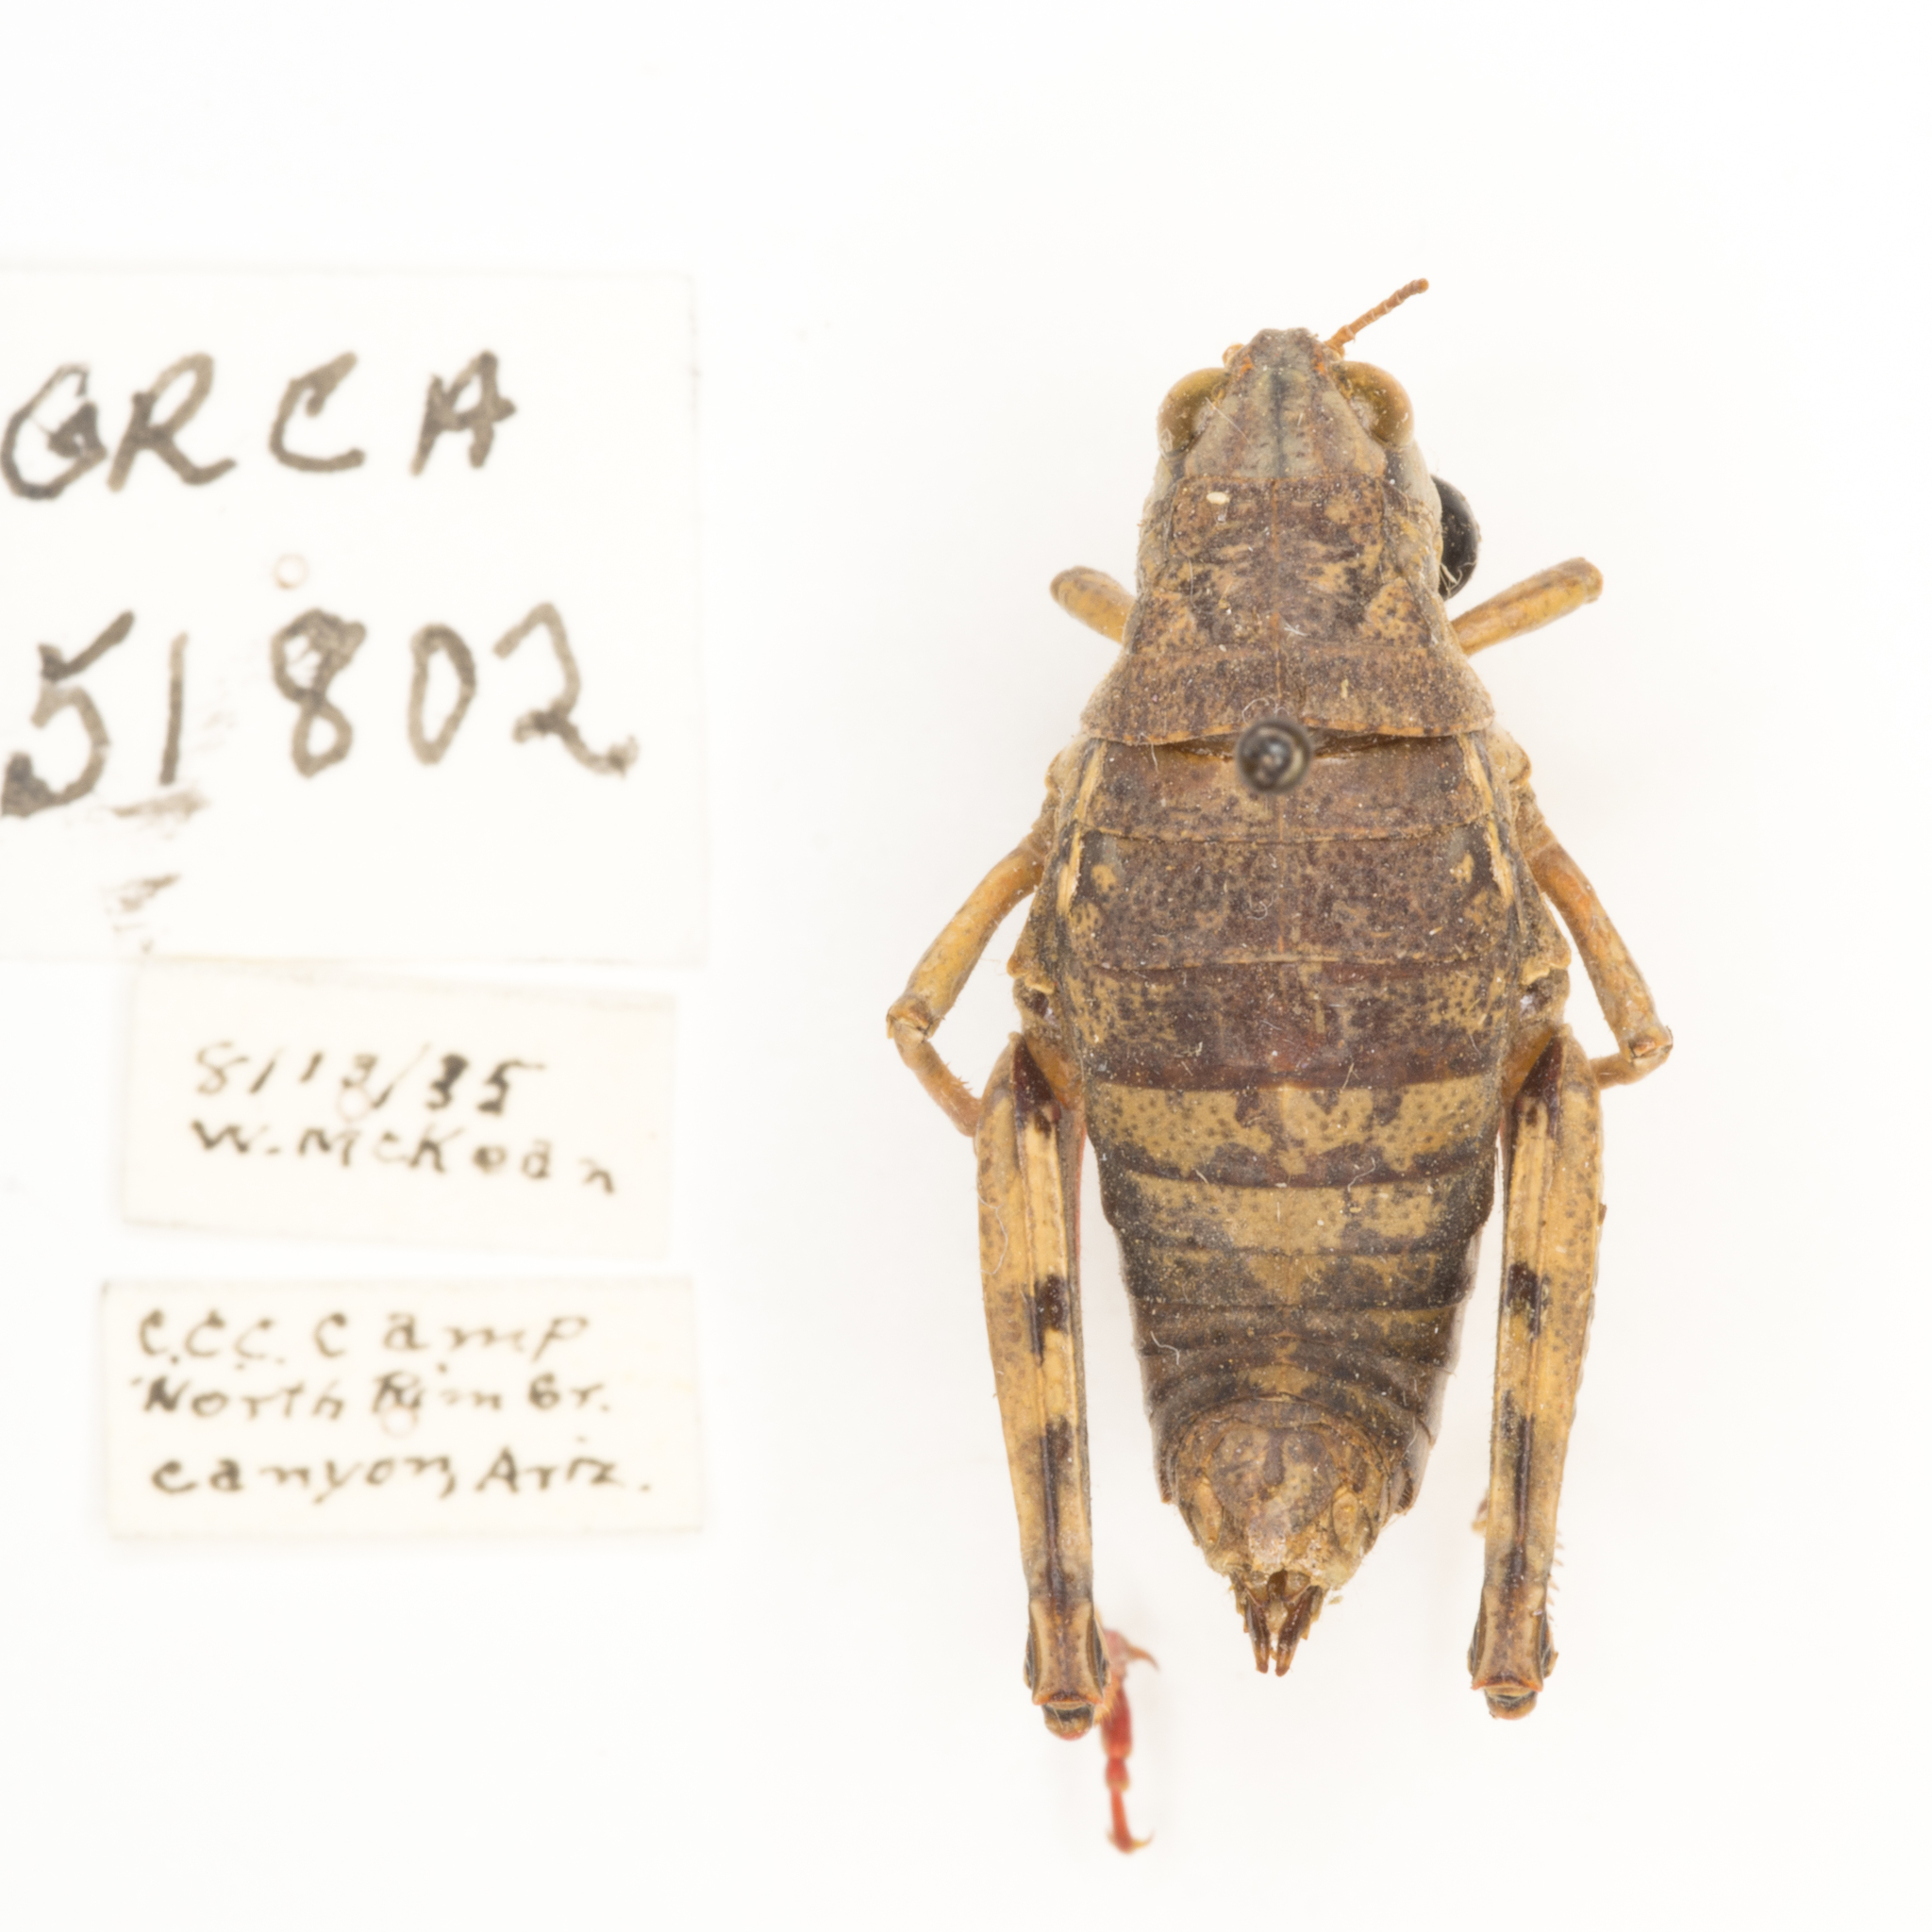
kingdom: Animalia
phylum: Arthropoda
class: Insecta
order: Orthoptera
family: Acrididae
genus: Bradynotes
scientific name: Bradynotes obesa
